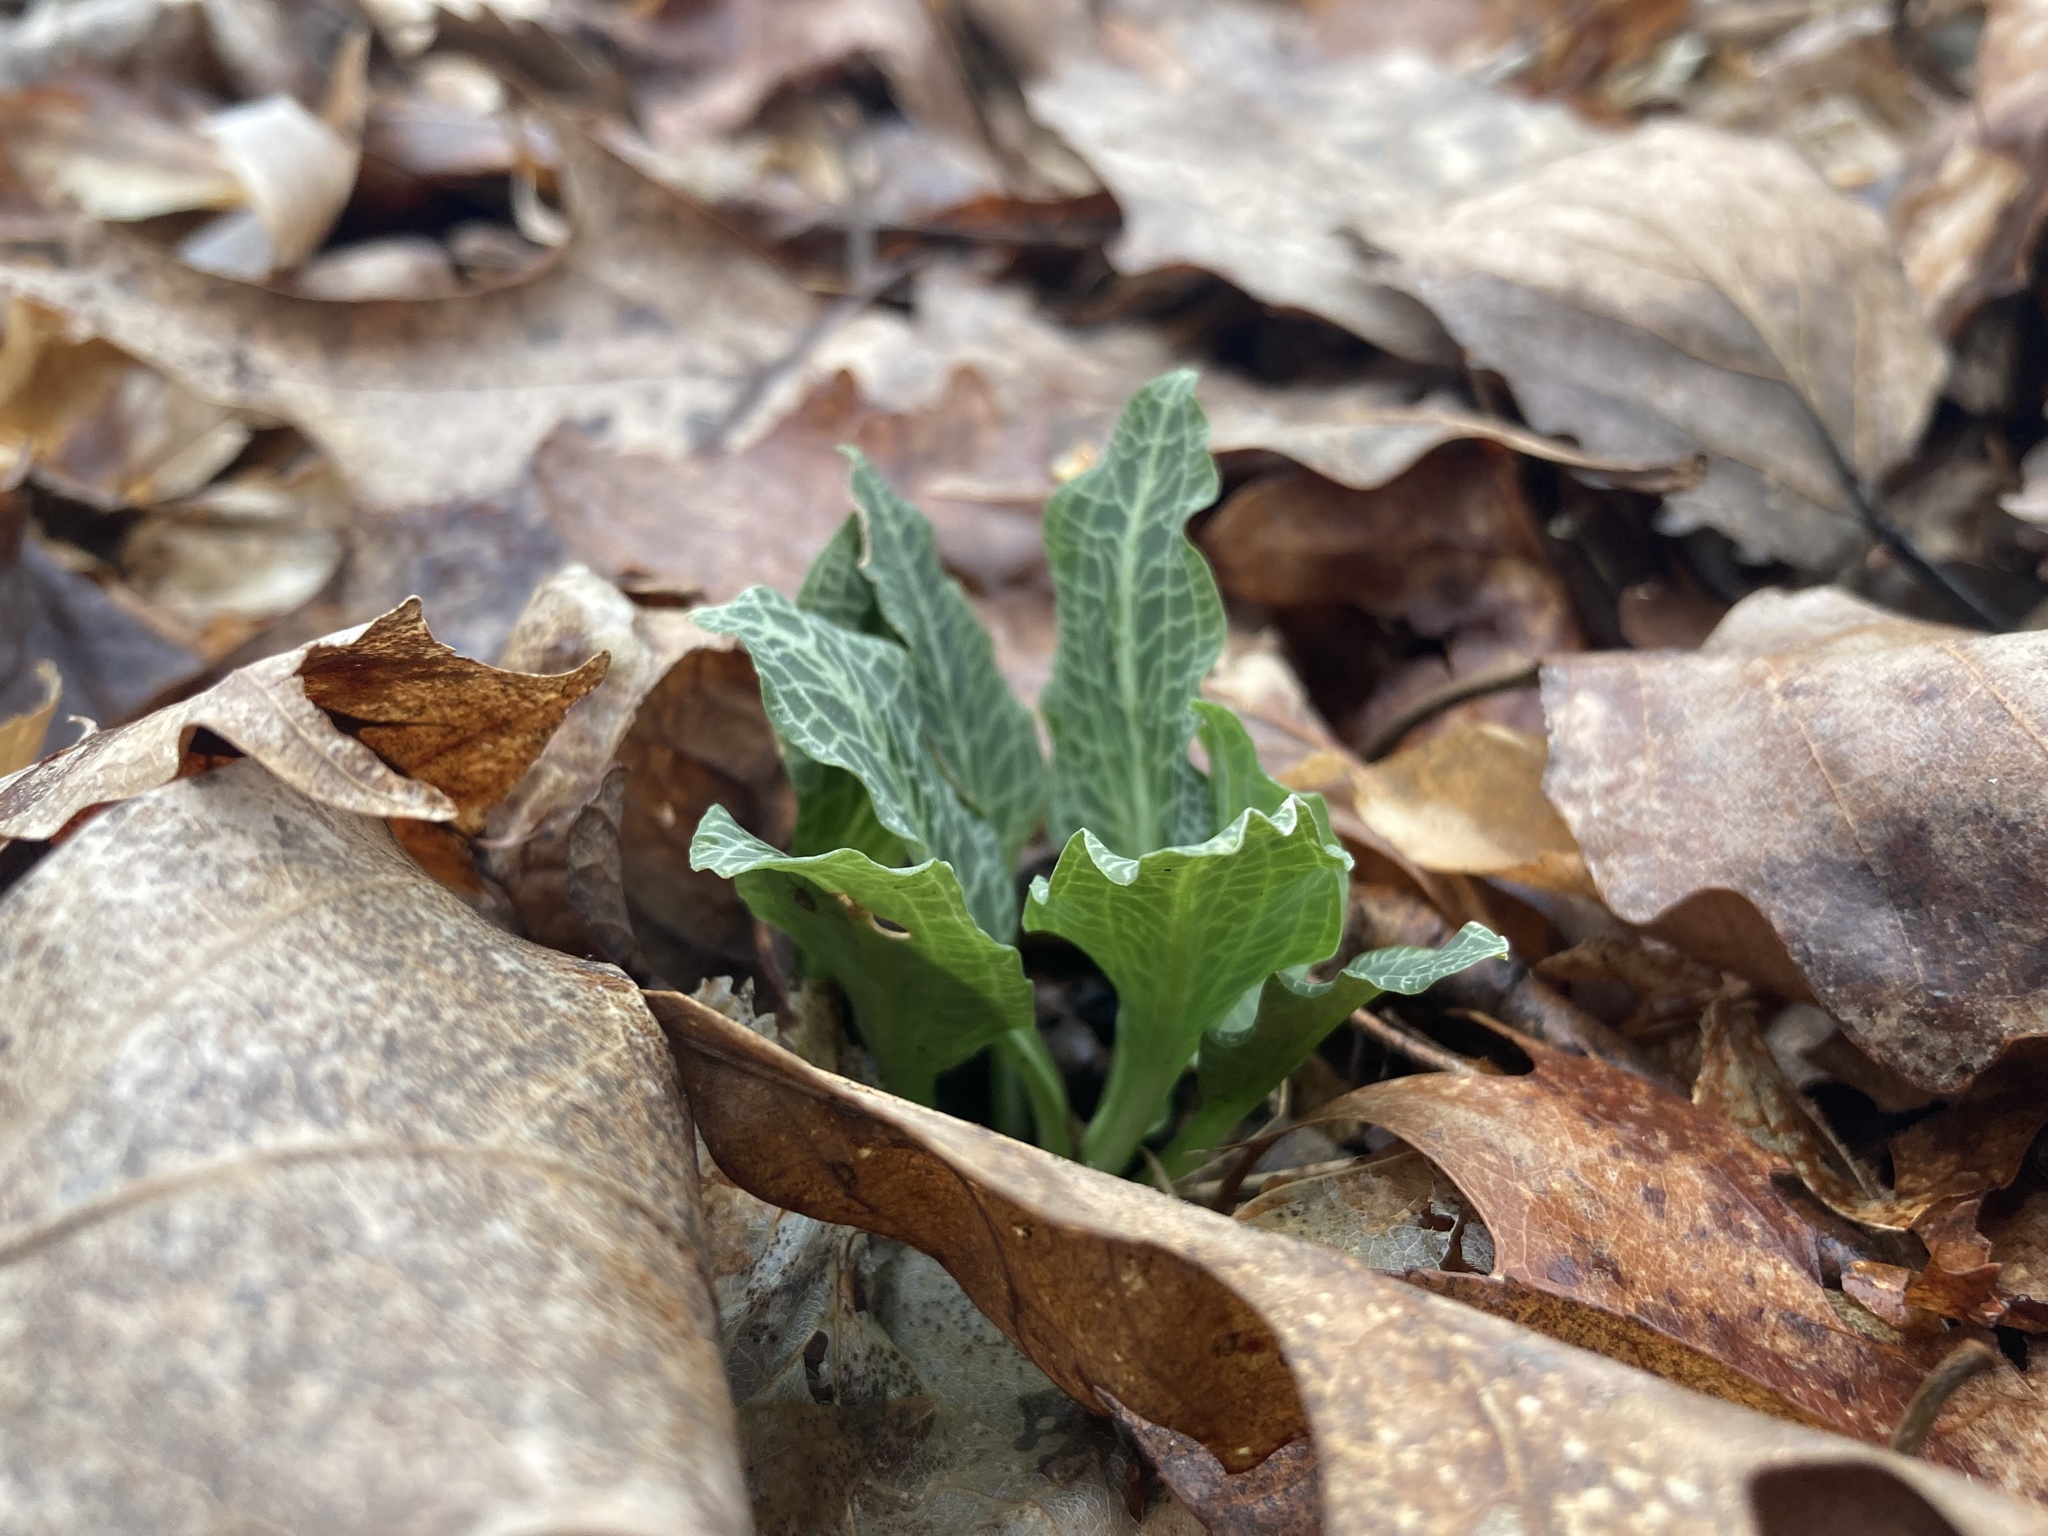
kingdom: Plantae
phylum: Tracheophyta
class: Liliopsida
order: Asparagales
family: Orchidaceae
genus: Goodyera
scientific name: Goodyera pubescens
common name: Downy rattlesnake-plantain
